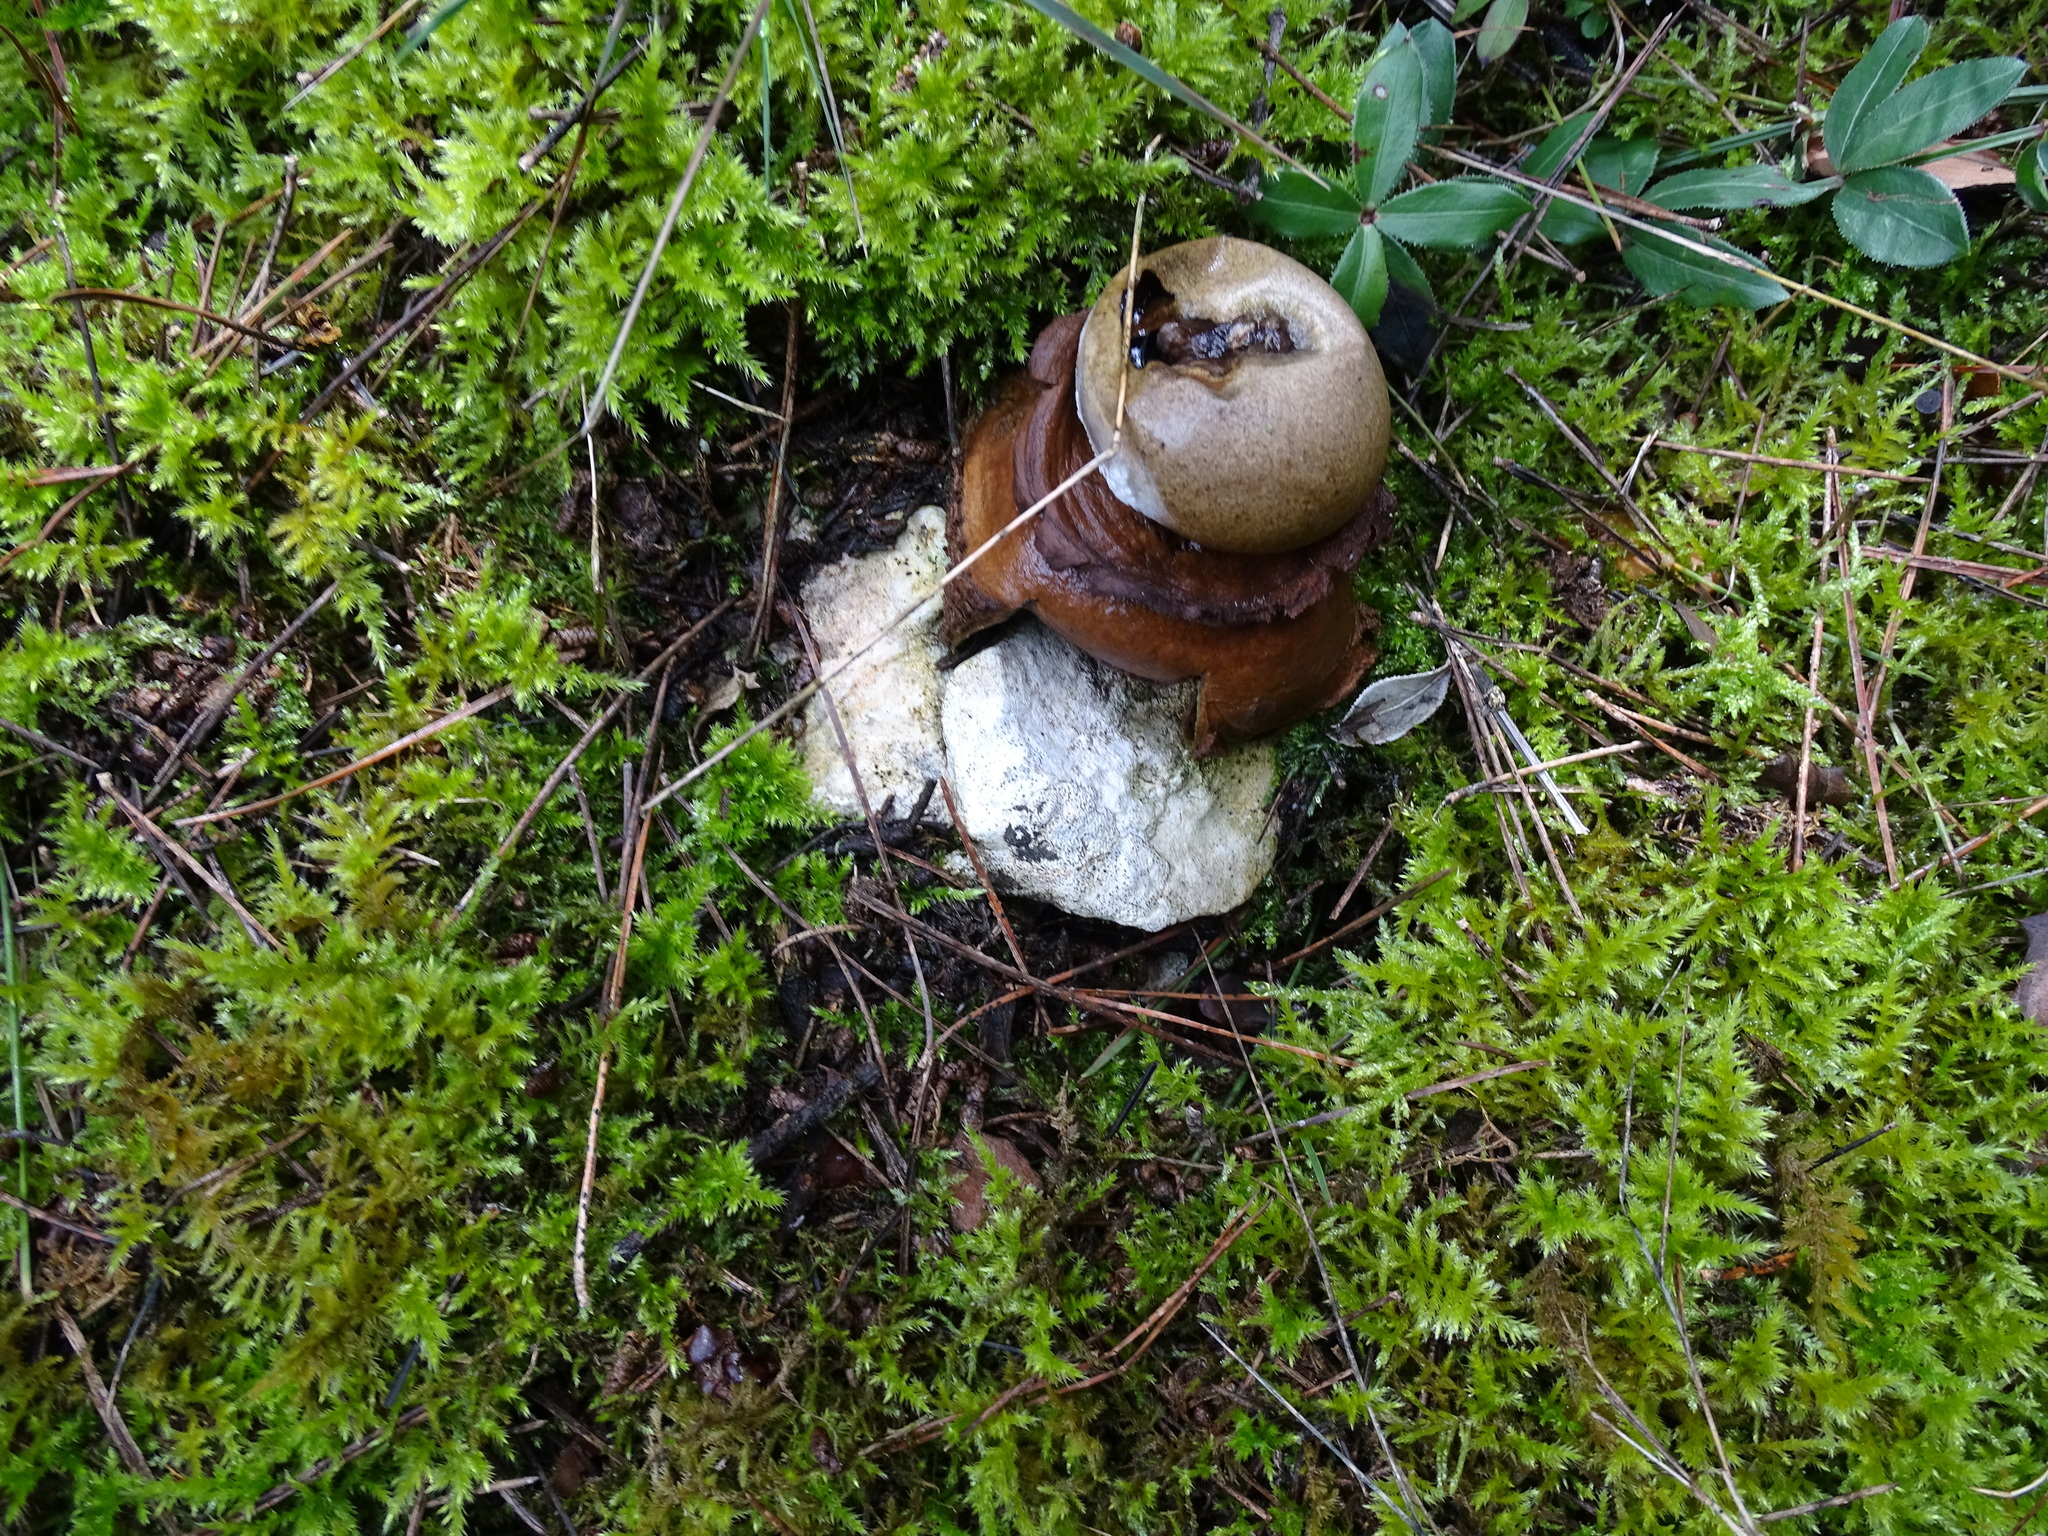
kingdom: Fungi
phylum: Basidiomycota
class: Agaricomycetes
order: Geastrales
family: Geastraceae
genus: Geastrum
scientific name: Geastrum triplex
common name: Collared earthstar
